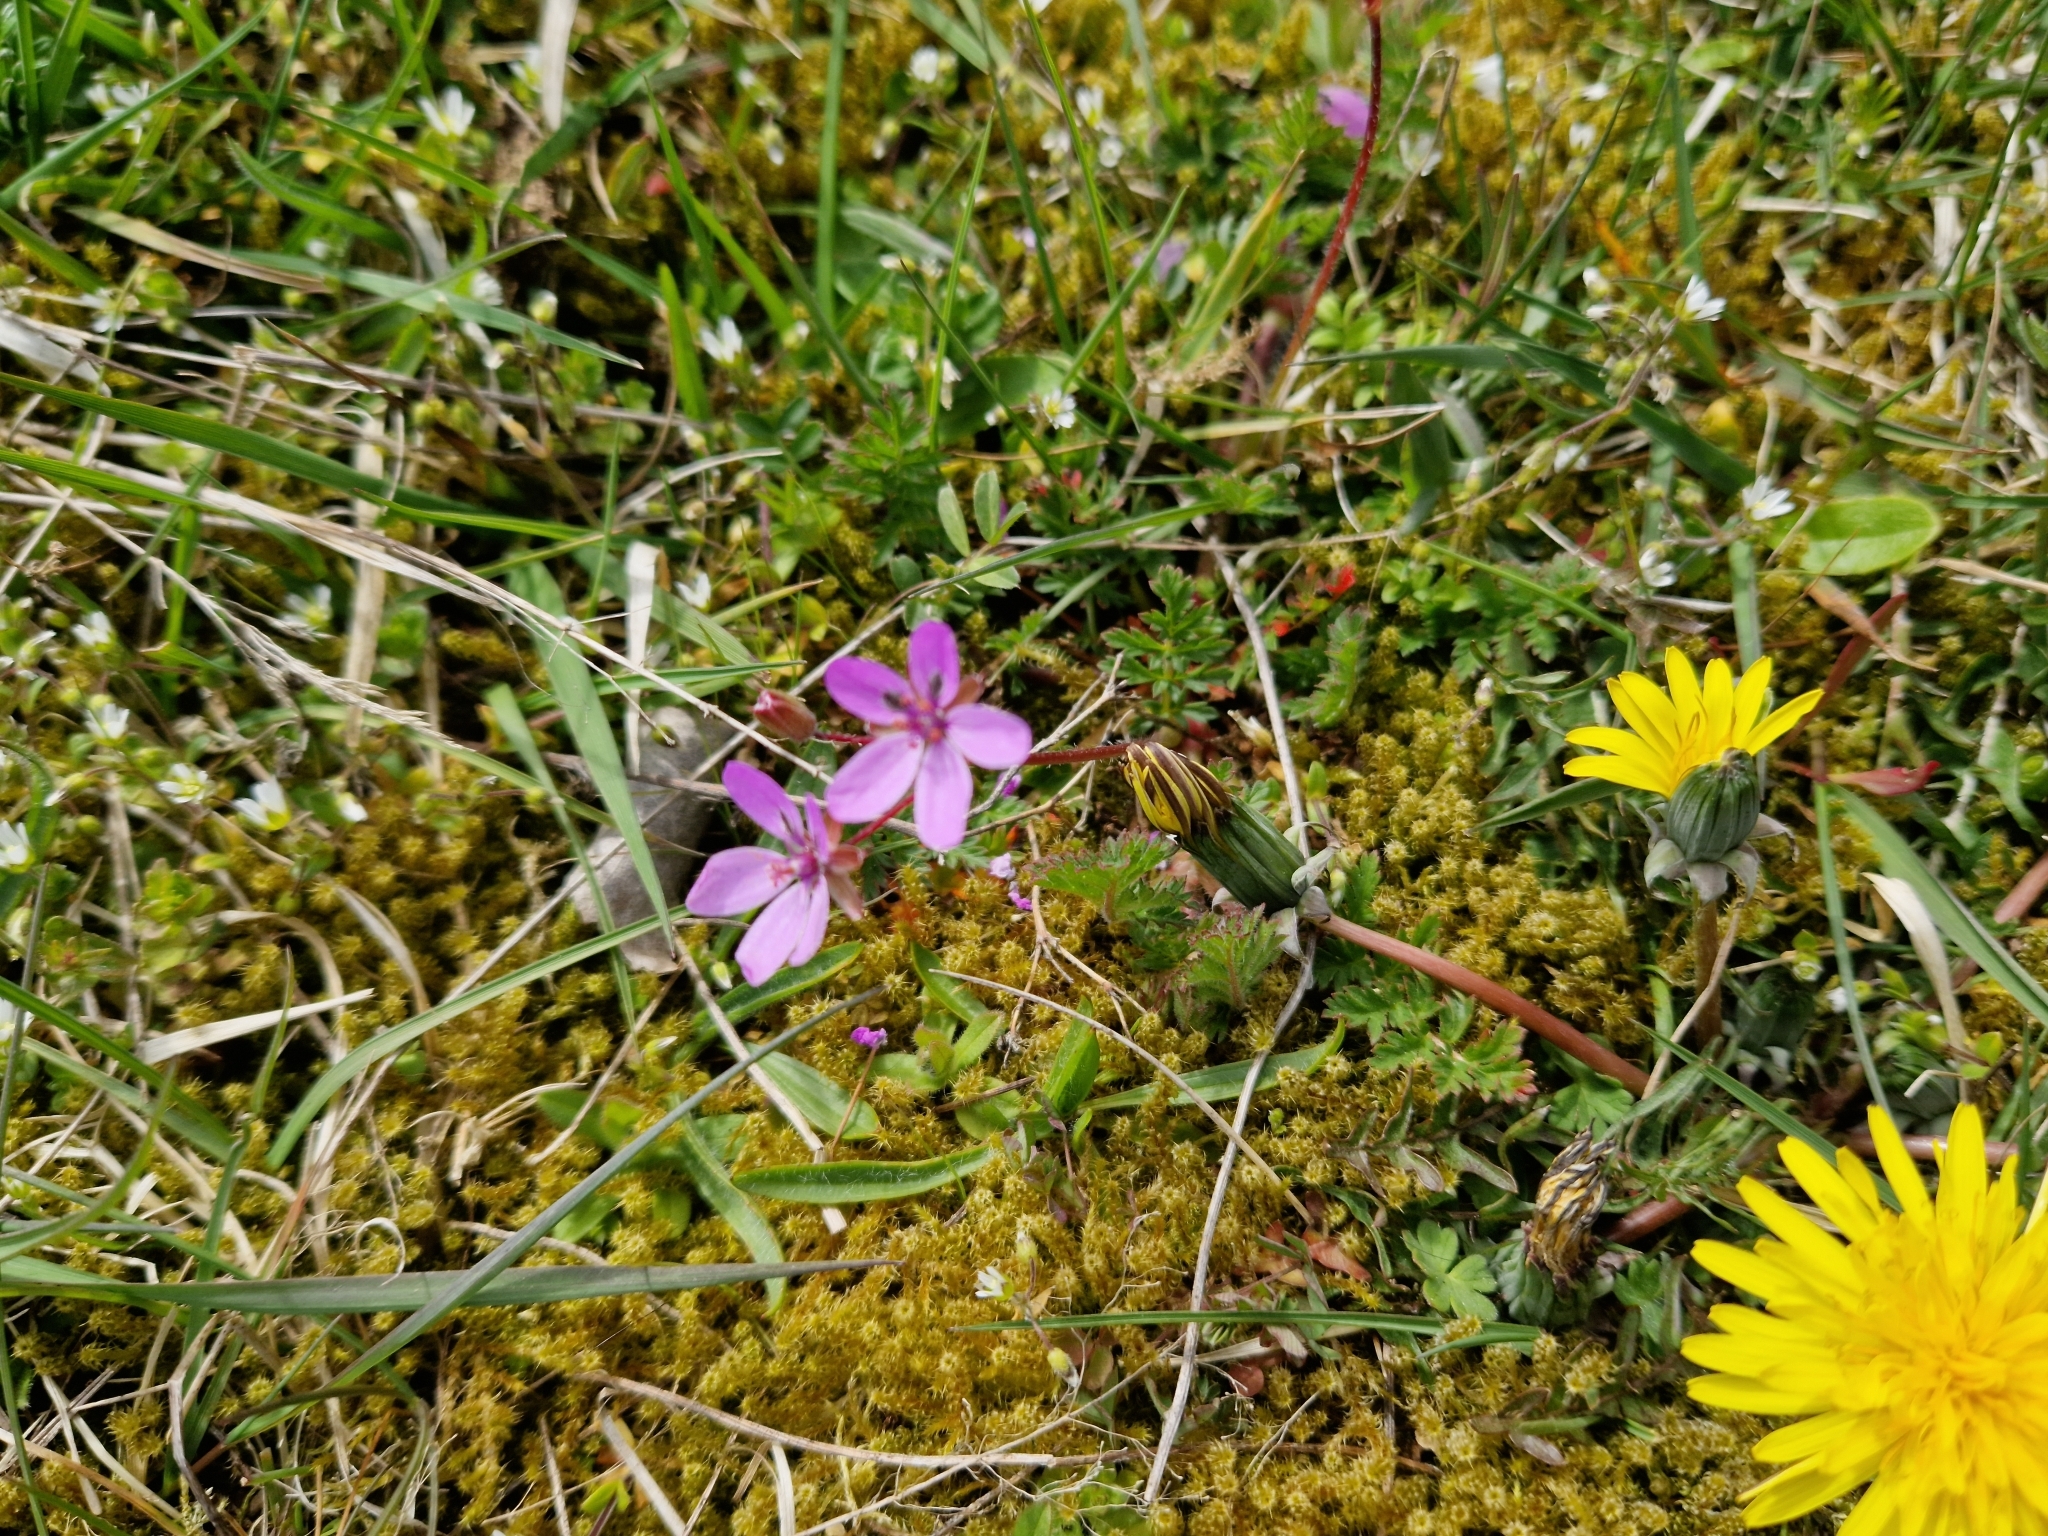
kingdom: Plantae
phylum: Tracheophyta
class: Magnoliopsida
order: Geraniales
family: Geraniaceae
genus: Erodium
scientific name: Erodium cicutarium
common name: Common stork's-bill
